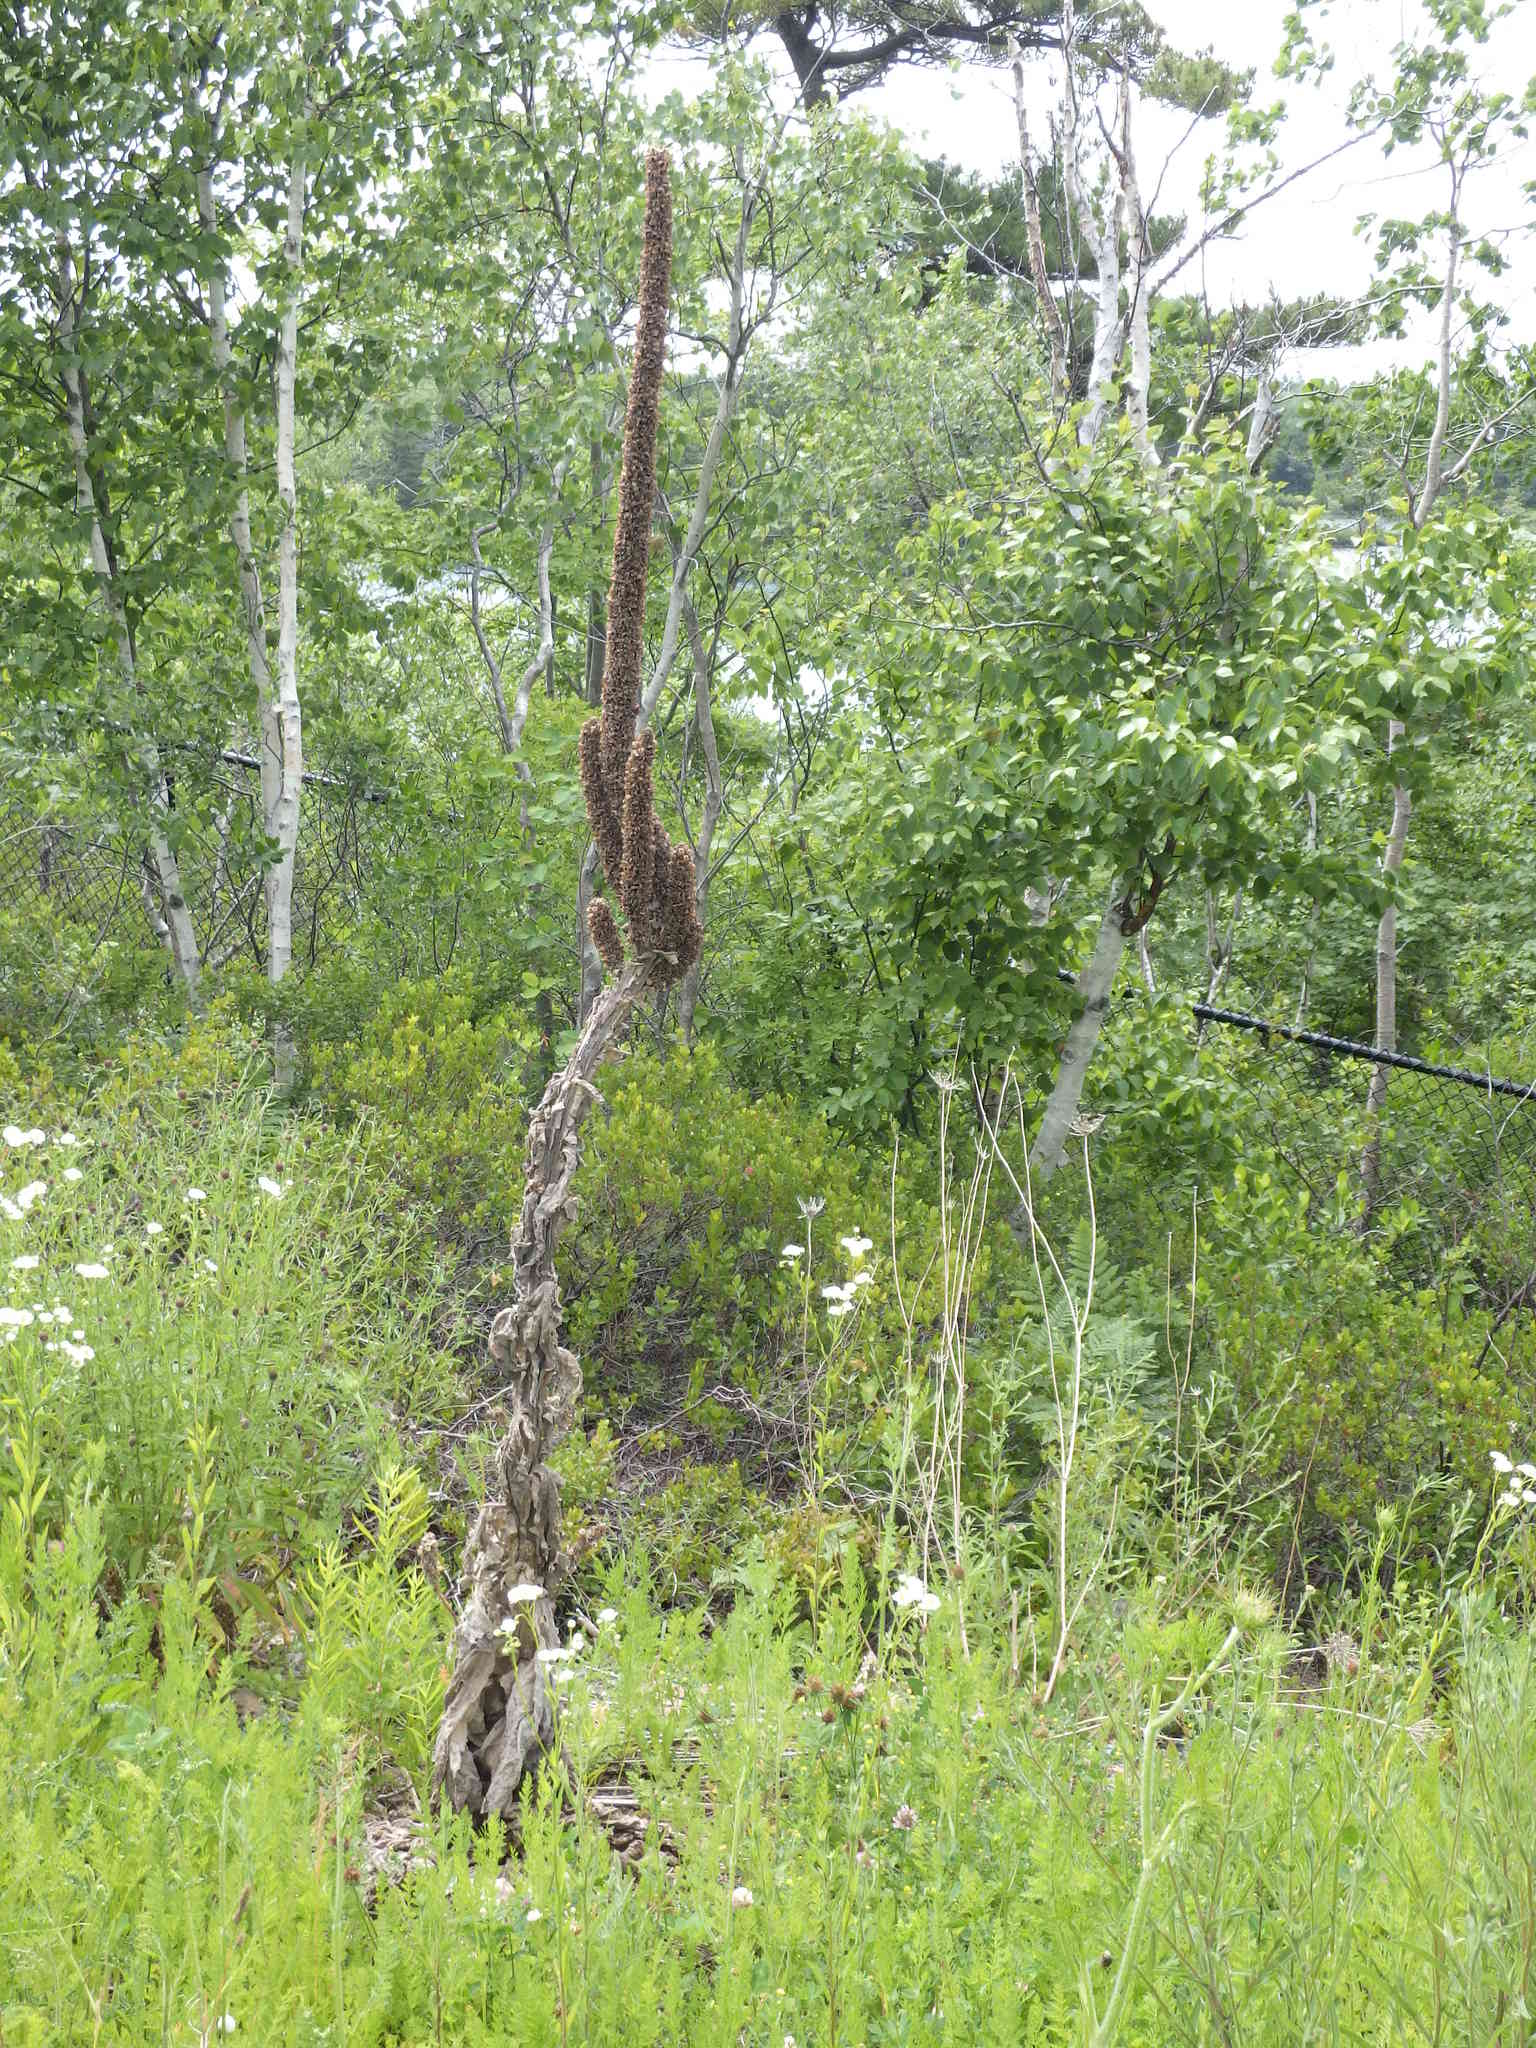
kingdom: Plantae
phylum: Tracheophyta
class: Magnoliopsida
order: Lamiales
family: Scrophulariaceae
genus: Verbascum
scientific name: Verbascum thapsus
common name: Common mullein
